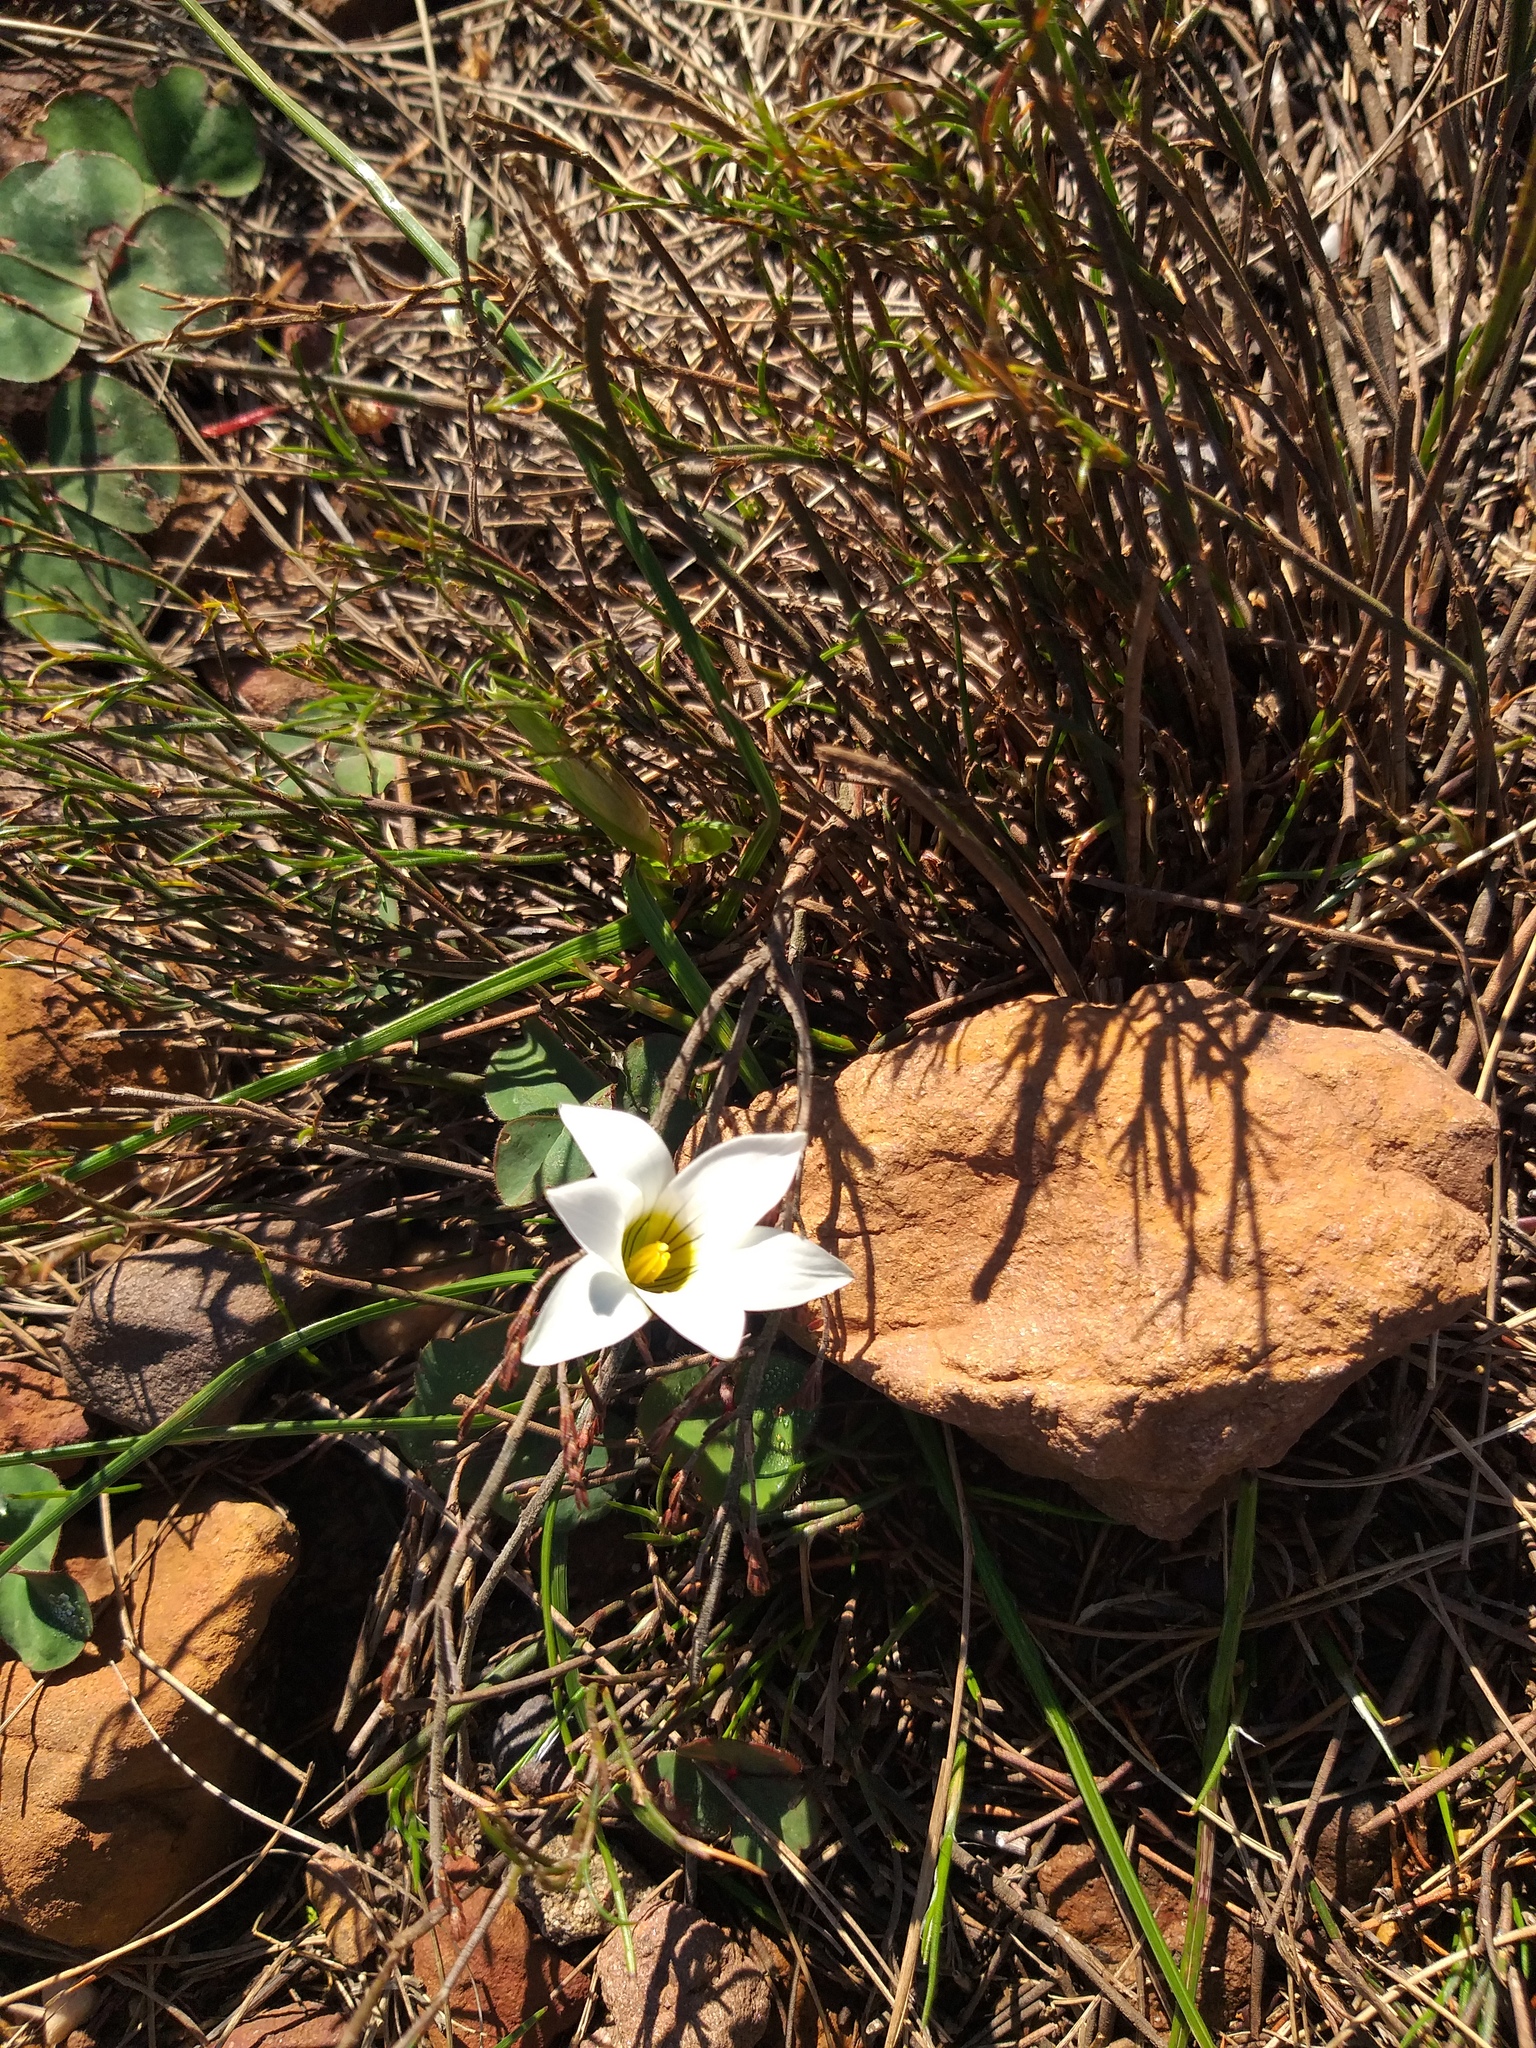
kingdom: Plantae
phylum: Tracheophyta
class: Liliopsida
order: Asparagales
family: Iridaceae
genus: Romulea
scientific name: Romulea flava
